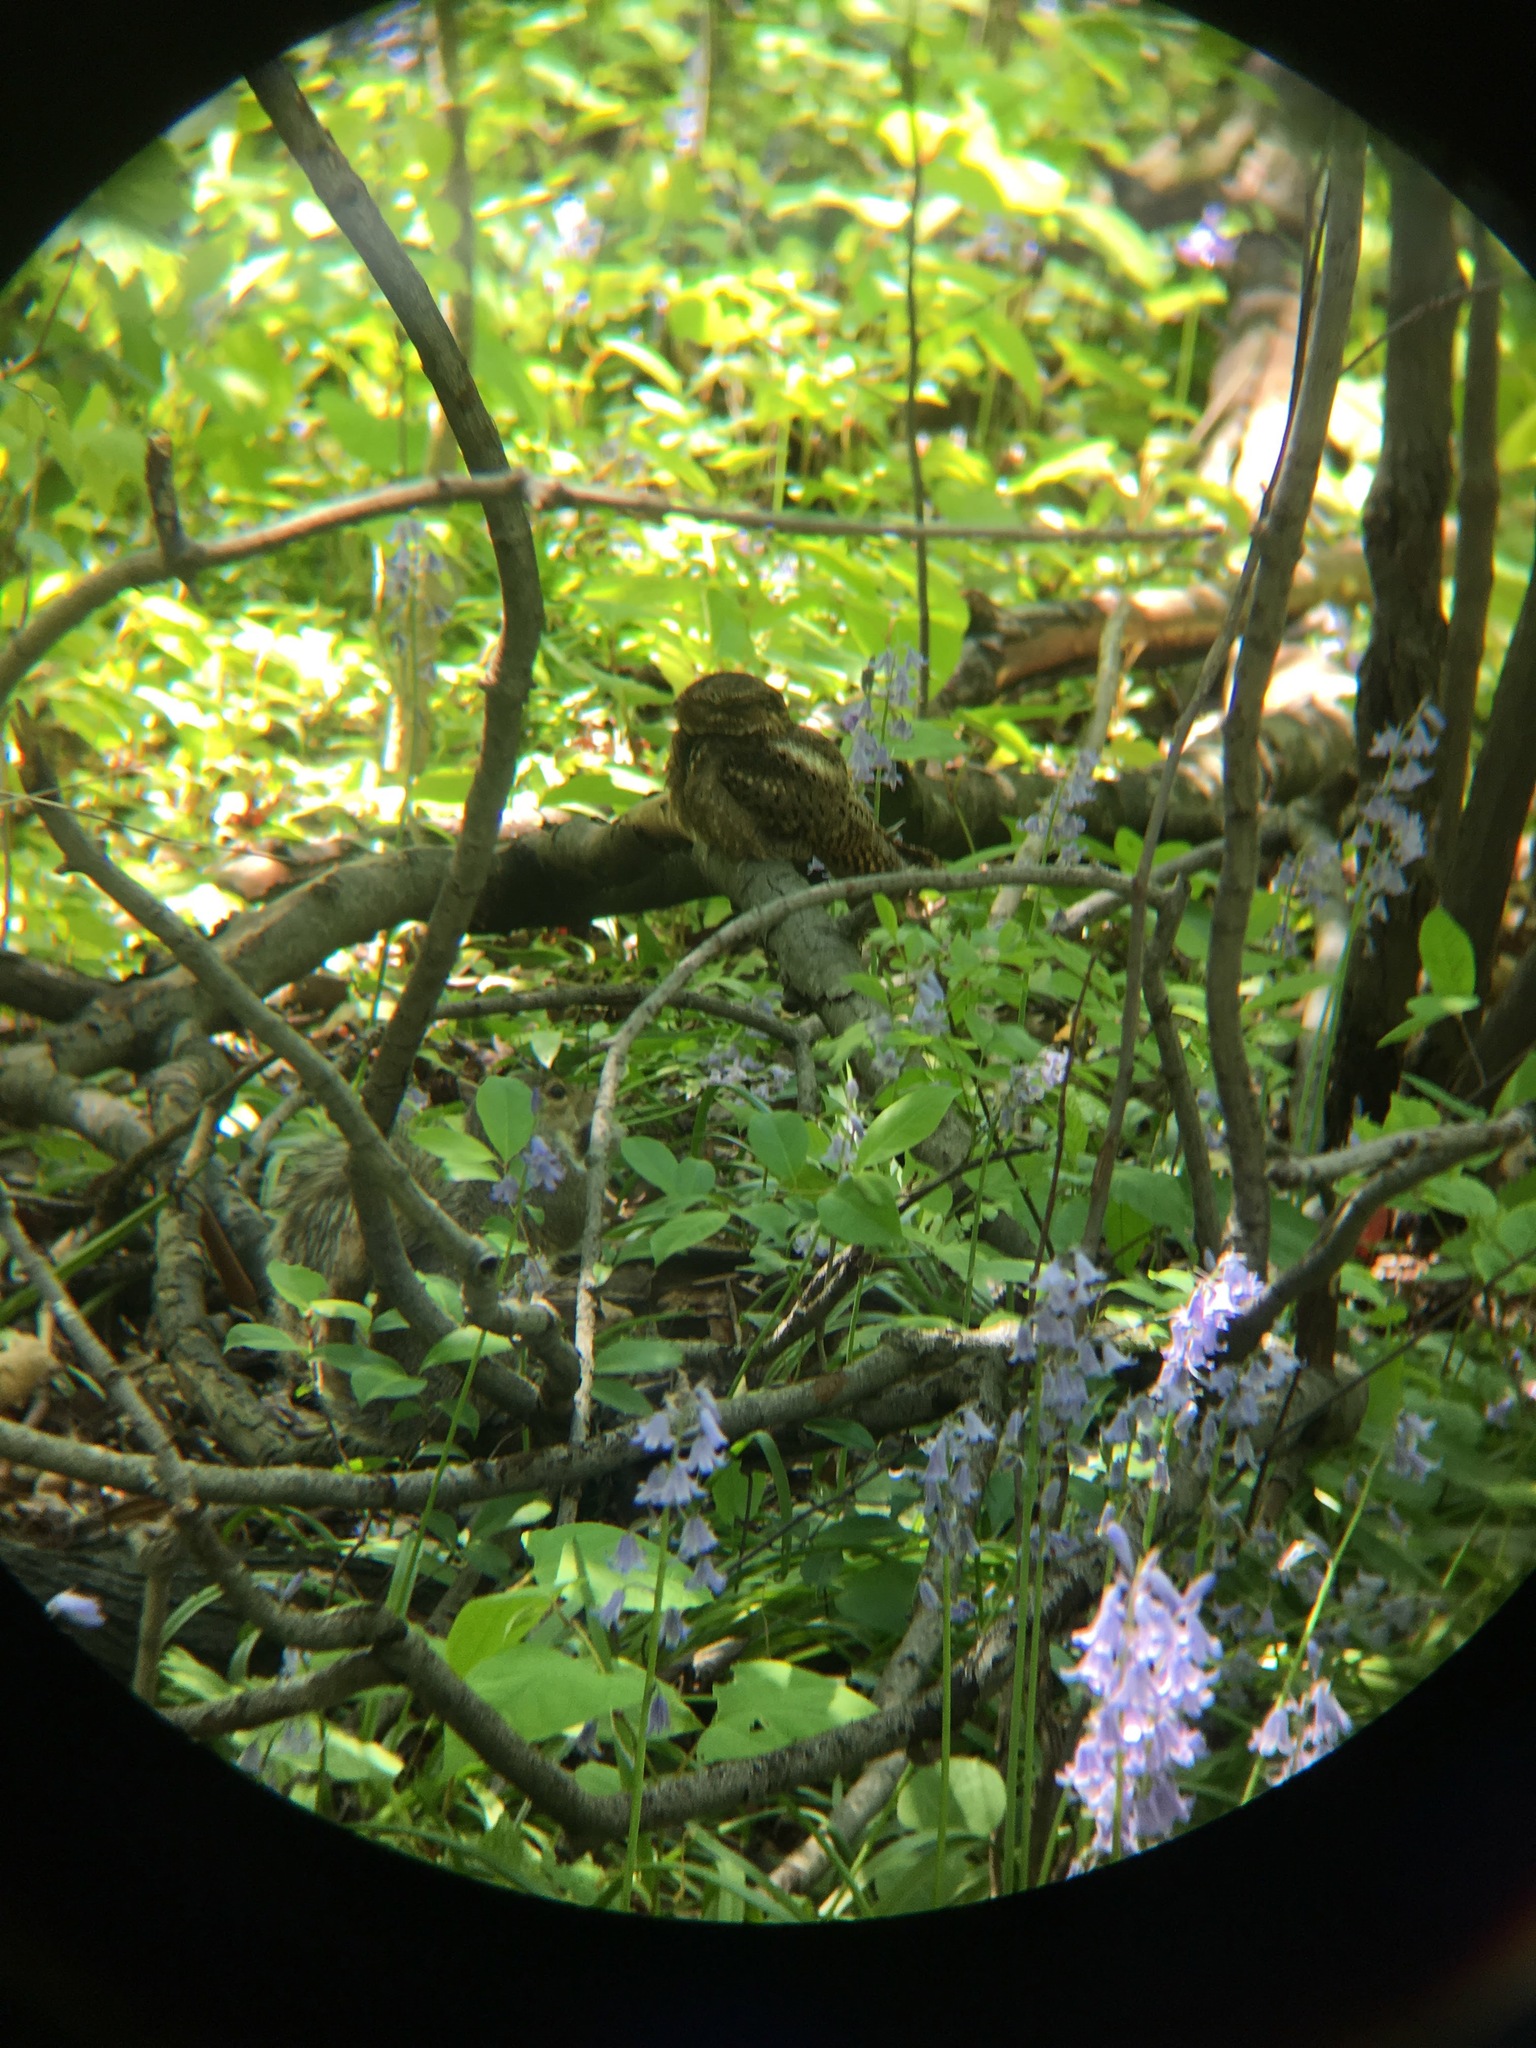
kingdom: Animalia
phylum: Chordata
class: Aves
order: Caprimulgiformes
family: Caprimulgidae
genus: Antrostomus
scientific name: Antrostomus carolinensis
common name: Chuck-will's-widow
